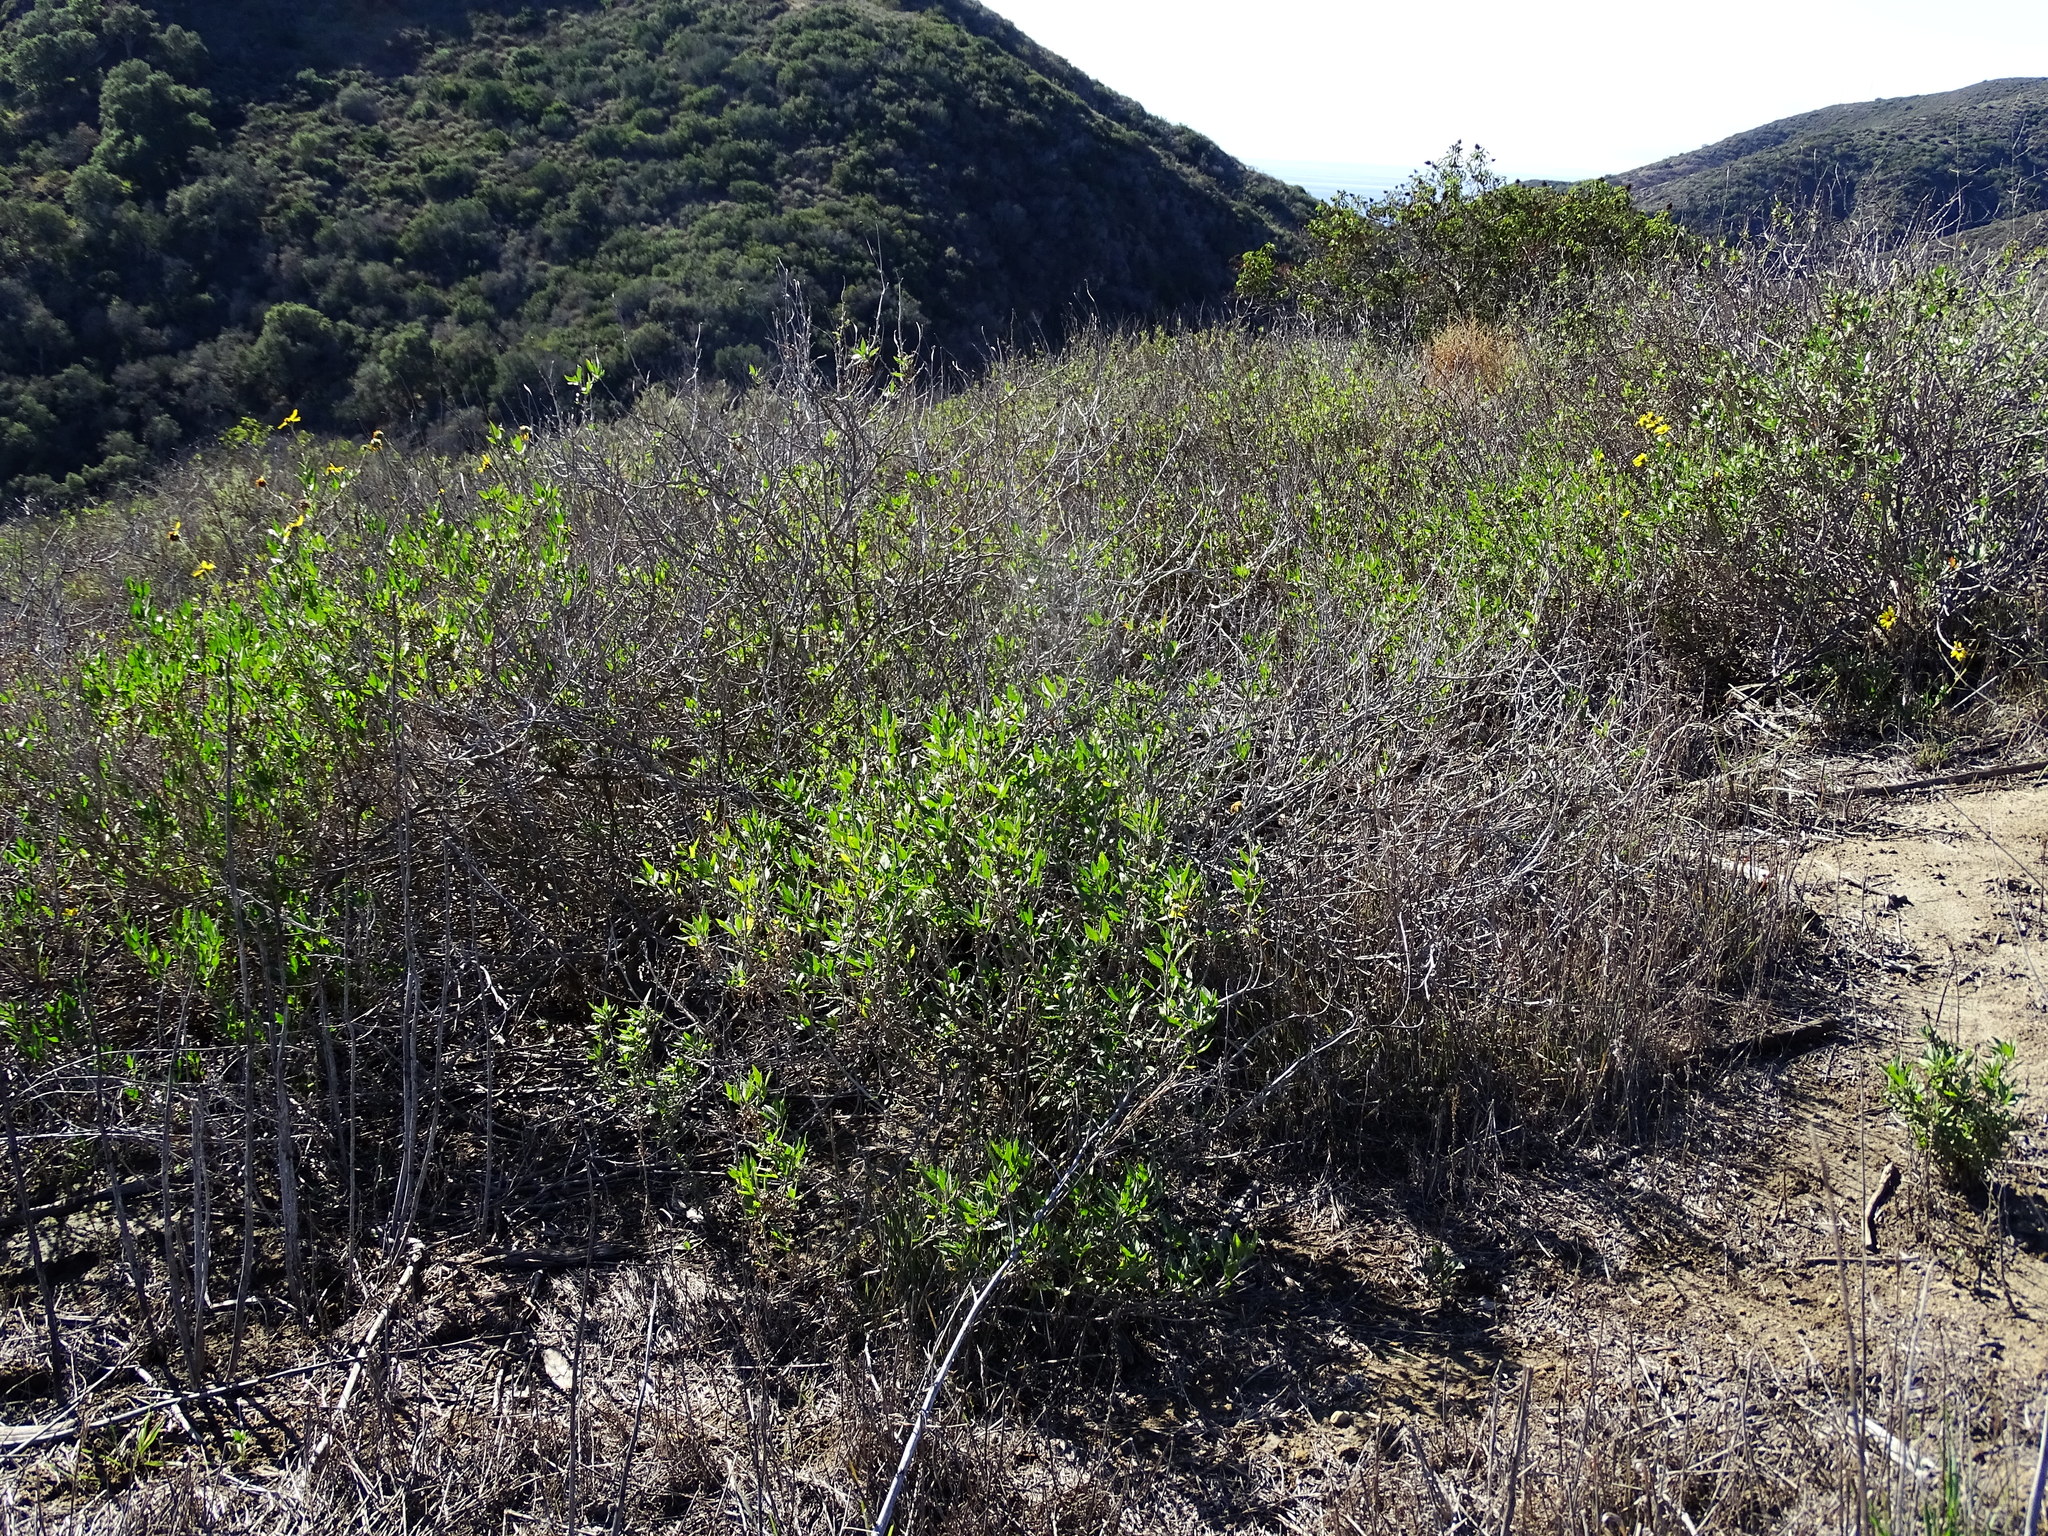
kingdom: Plantae
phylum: Tracheophyta
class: Magnoliopsida
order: Asterales
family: Asteraceae
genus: Encelia
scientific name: Encelia californica
